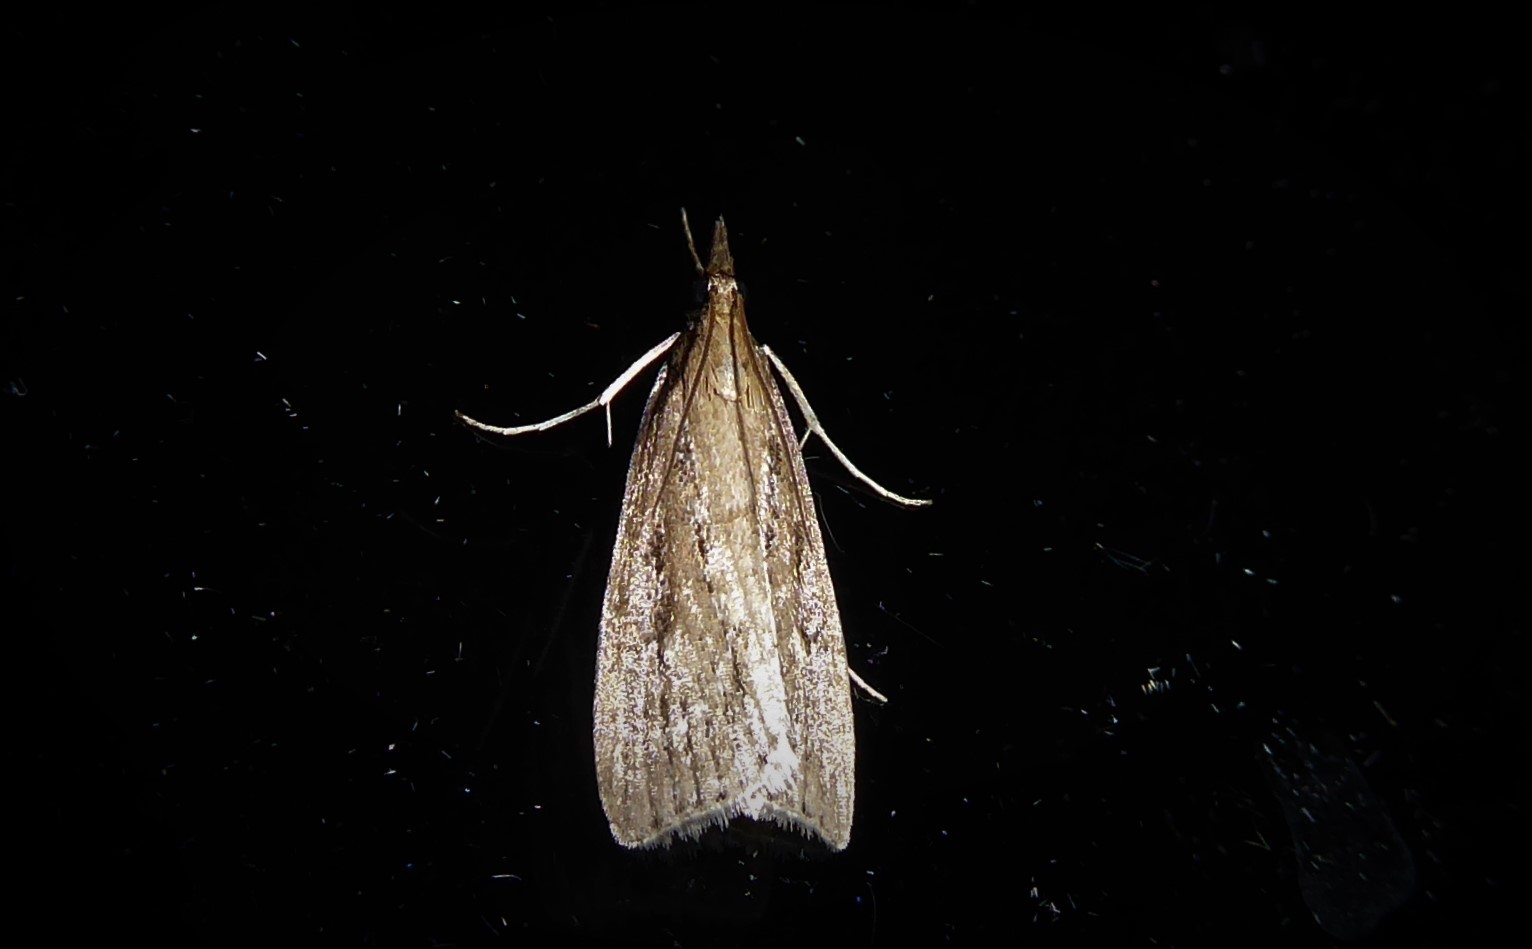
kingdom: Animalia
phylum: Arthropoda
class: Insecta
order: Lepidoptera
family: Crambidae
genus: Eudonia
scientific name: Eudonia octophora
